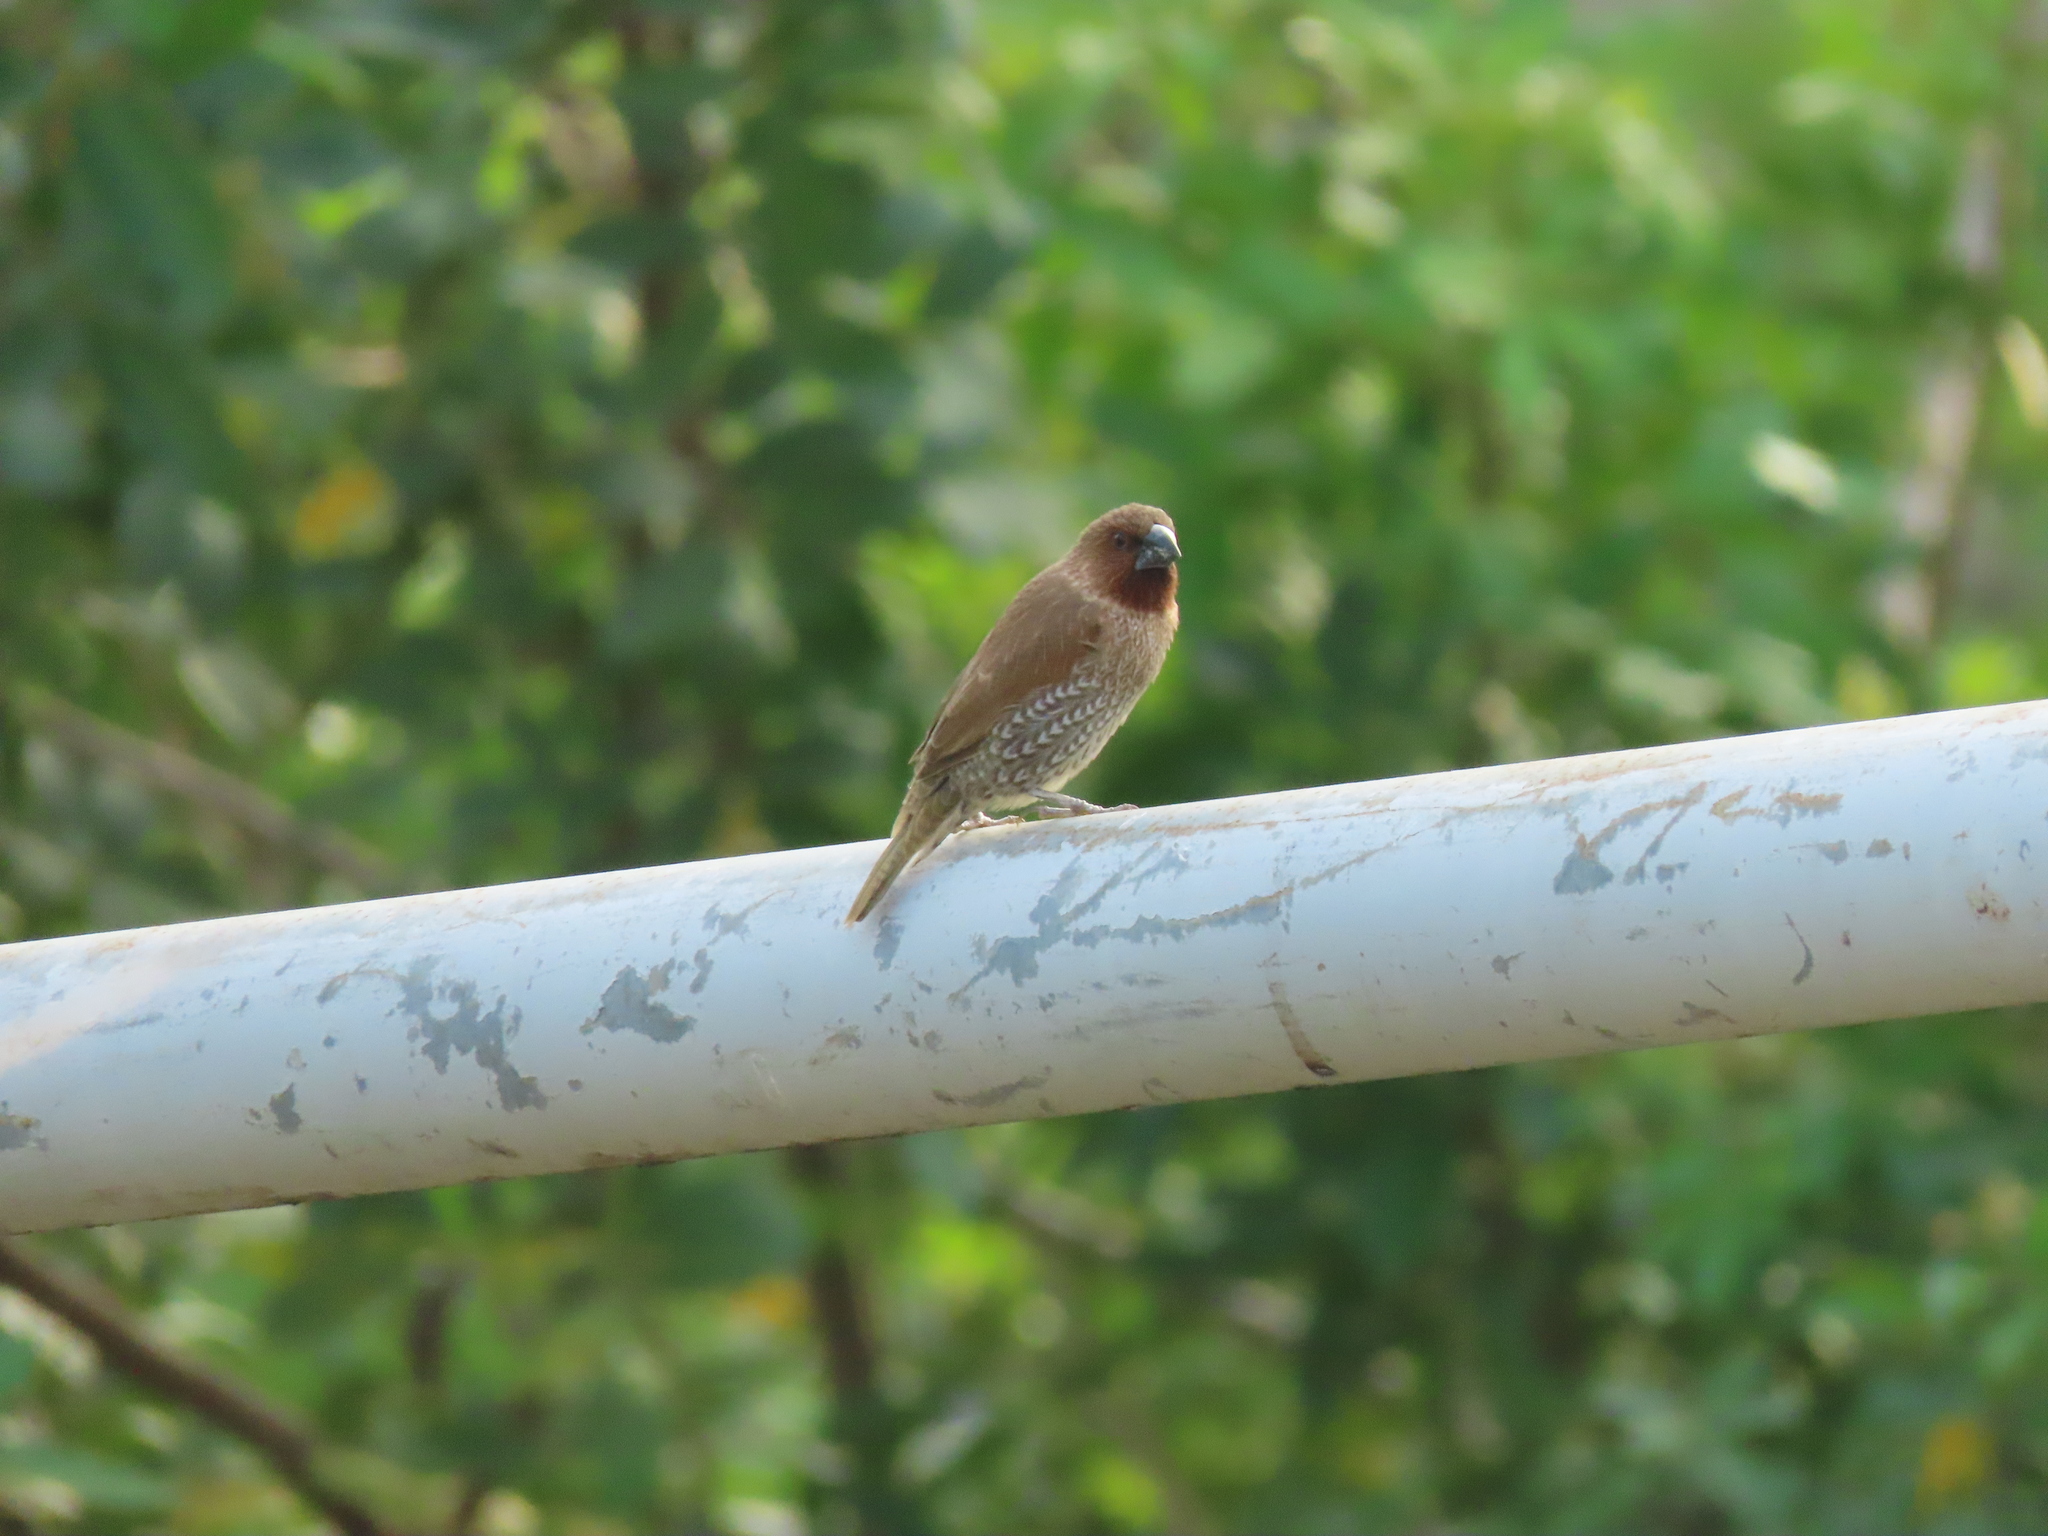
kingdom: Animalia
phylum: Chordata
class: Aves
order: Passeriformes
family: Estrildidae
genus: Lonchura
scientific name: Lonchura punctulata
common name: Scaly-breasted munia
